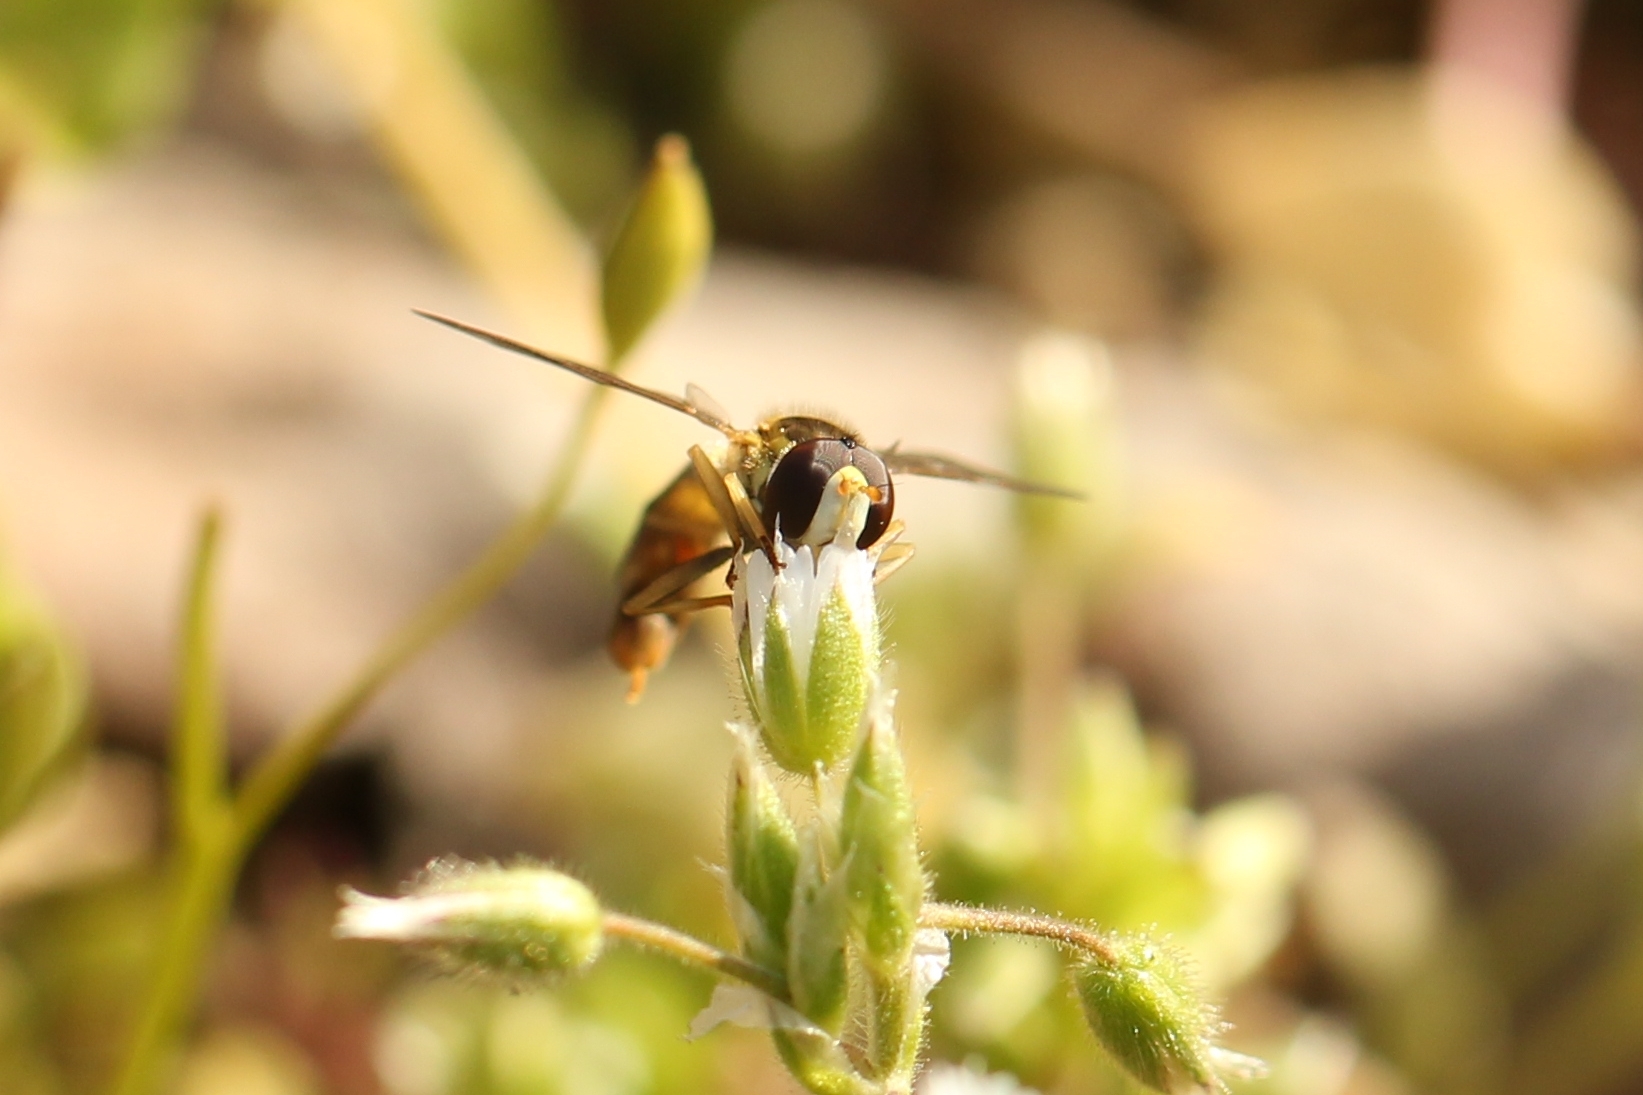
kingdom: Animalia
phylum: Arthropoda
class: Insecta
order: Diptera
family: Syrphidae
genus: Sphaerophoria
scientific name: Sphaerophoria scripta
